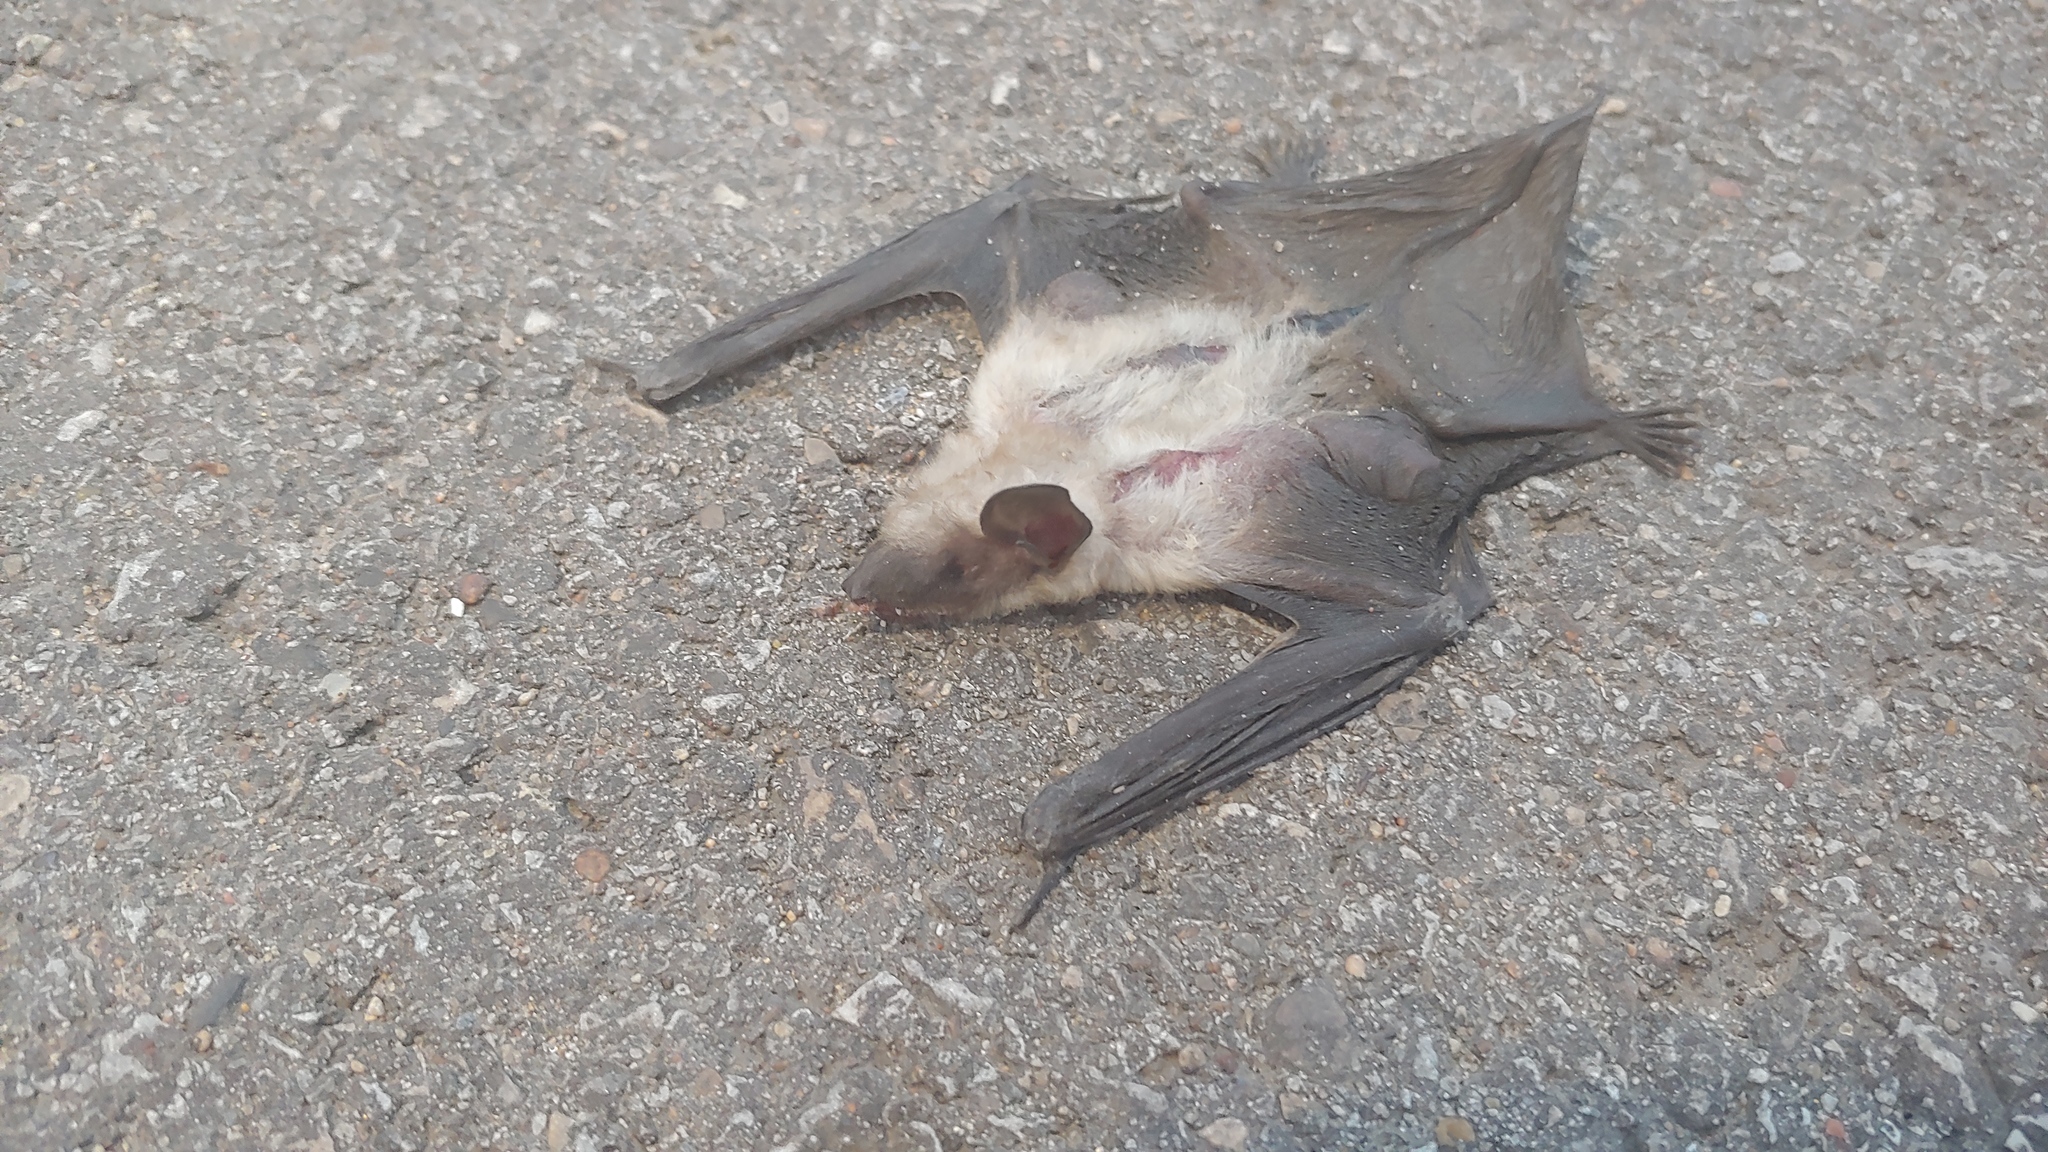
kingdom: Animalia
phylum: Chordata
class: Mammalia
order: Chiroptera
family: Vespertilionidae
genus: Eptesicus
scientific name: Eptesicus fuscus
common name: Big brown bat
